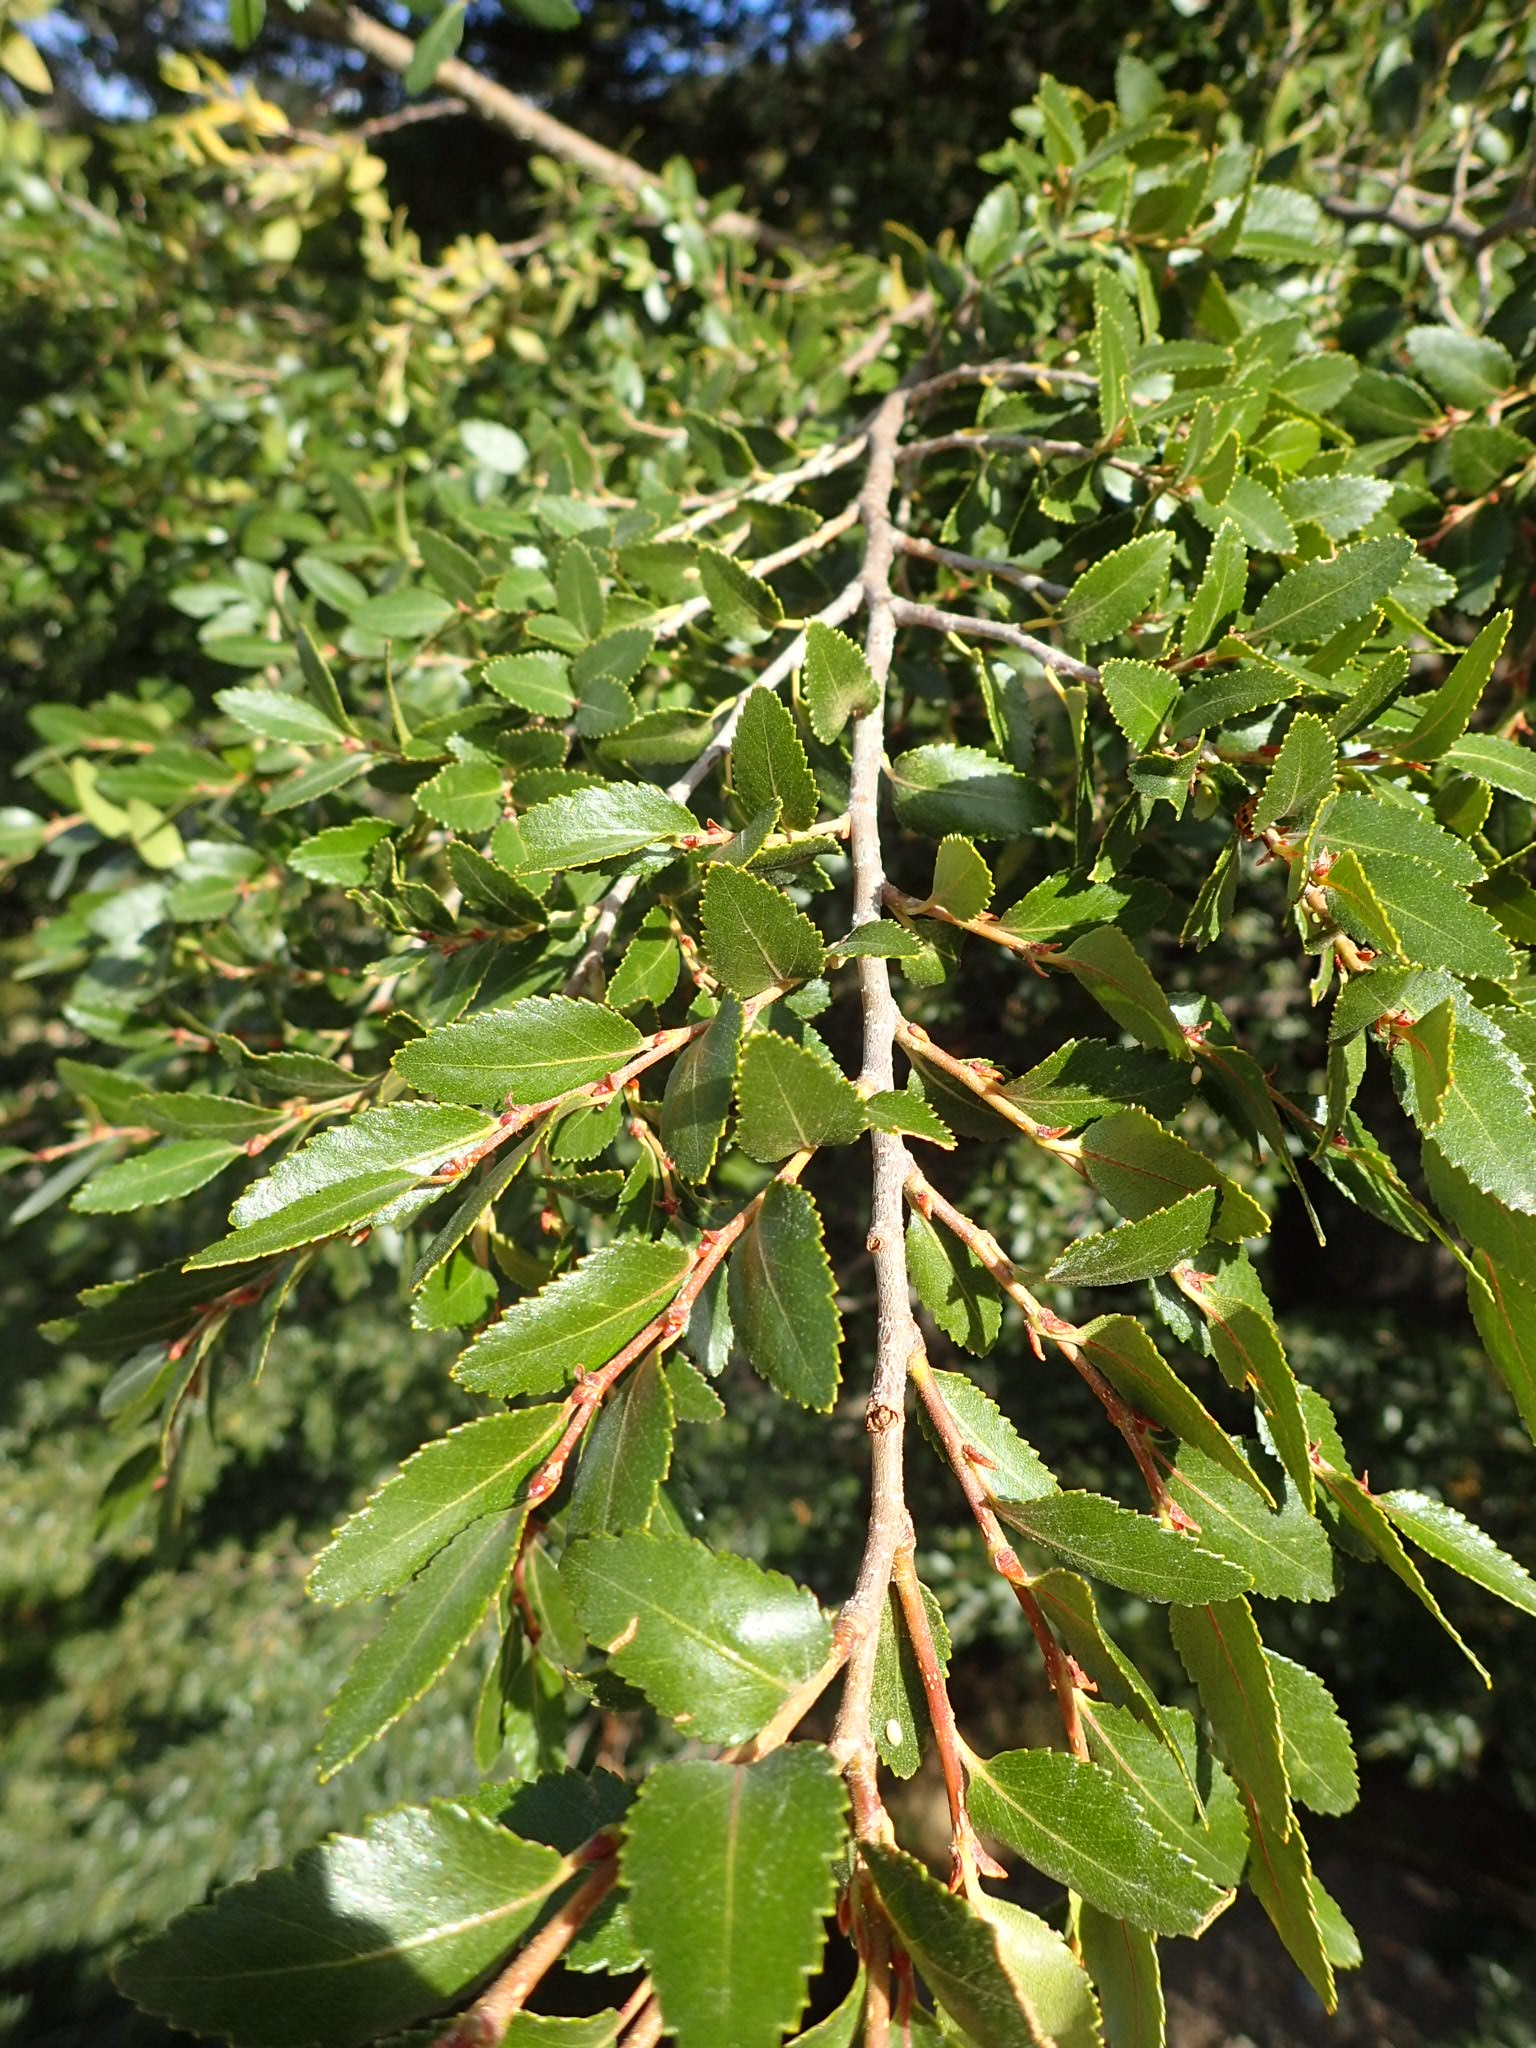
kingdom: Plantae
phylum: Tracheophyta
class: Magnoliopsida
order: Fagales
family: Nothofagaceae
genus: Nothofagus
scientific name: Nothofagus dombeyi
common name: Coigue
